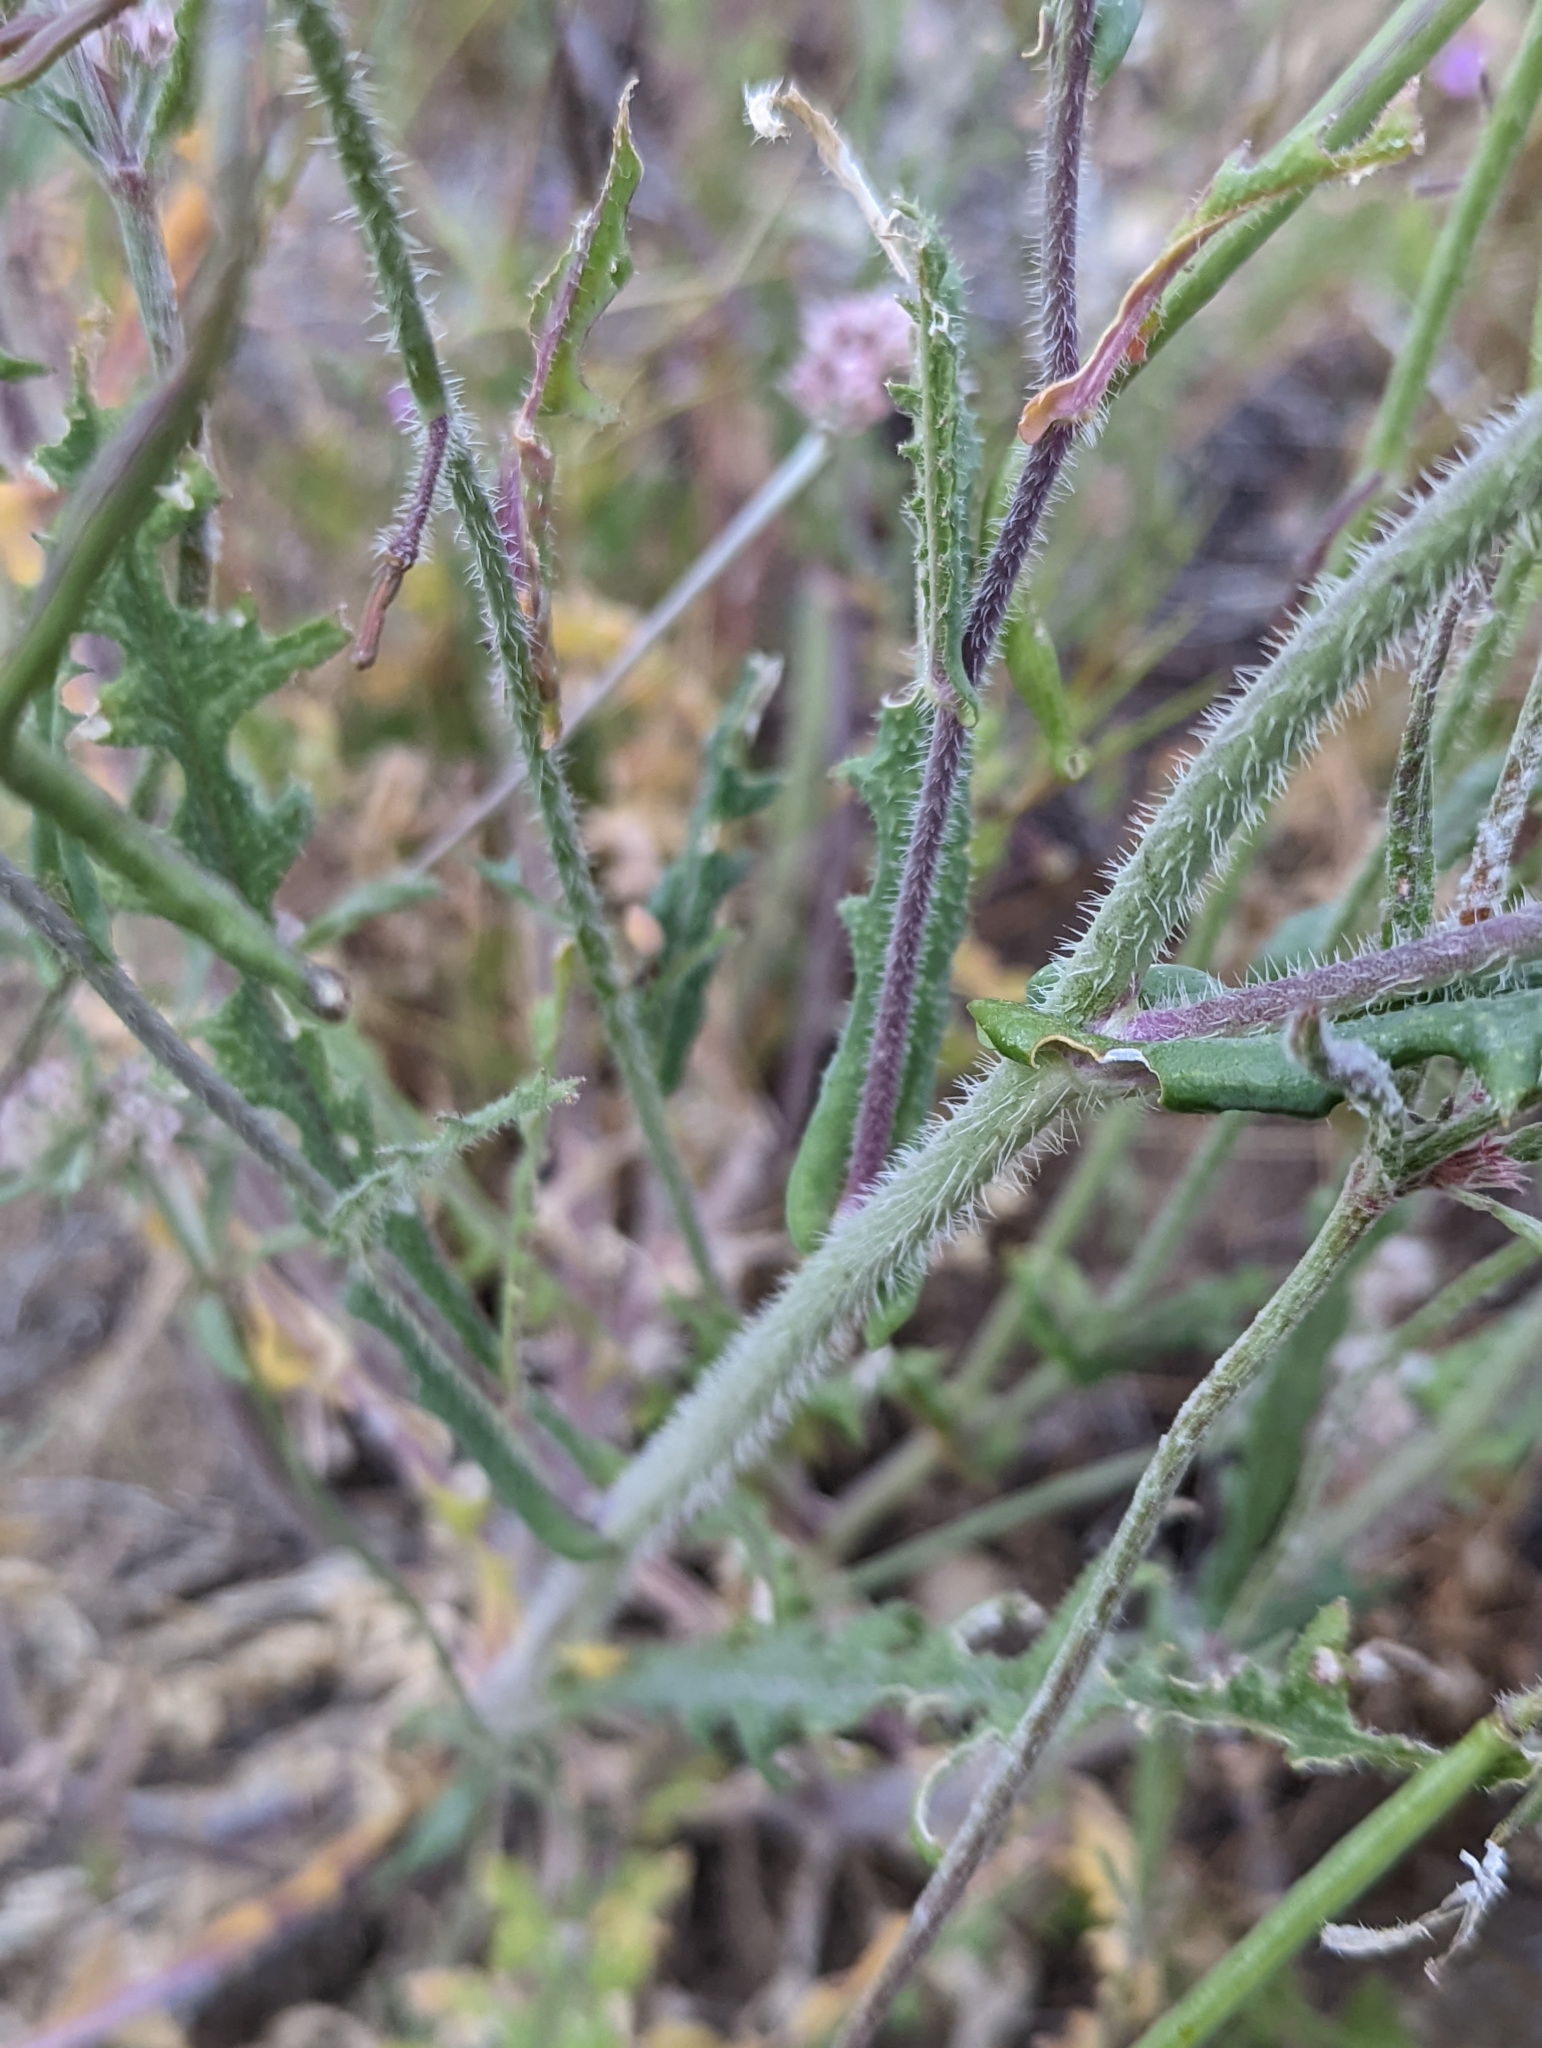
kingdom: Plantae
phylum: Tracheophyta
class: Magnoliopsida
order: Brassicales
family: Brassicaceae
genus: Streptanthus
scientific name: Streptanthus coulteri
